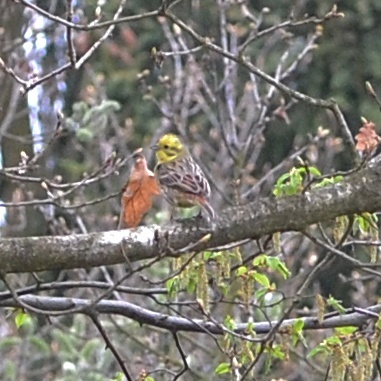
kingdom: Animalia
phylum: Chordata
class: Aves
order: Passeriformes
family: Emberizidae
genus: Emberiza
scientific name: Emberiza citrinella
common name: Yellowhammer
